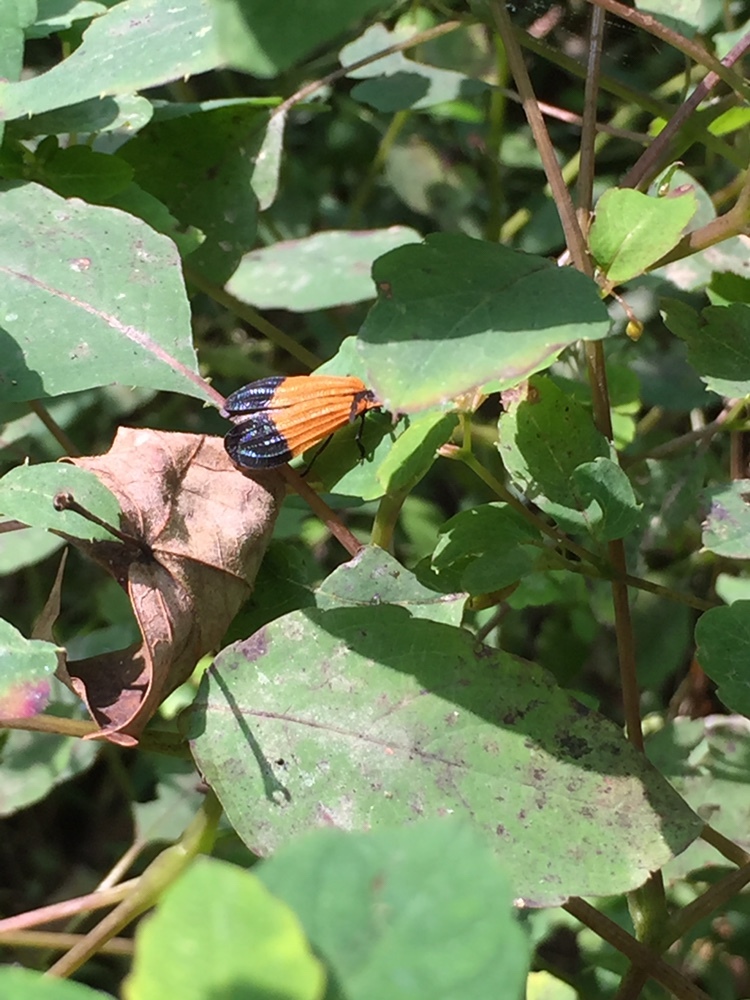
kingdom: Animalia
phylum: Arthropoda
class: Insecta
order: Coleoptera
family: Lycidae
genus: Calopteron
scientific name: Calopteron terminale
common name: End band net-winged beetle
